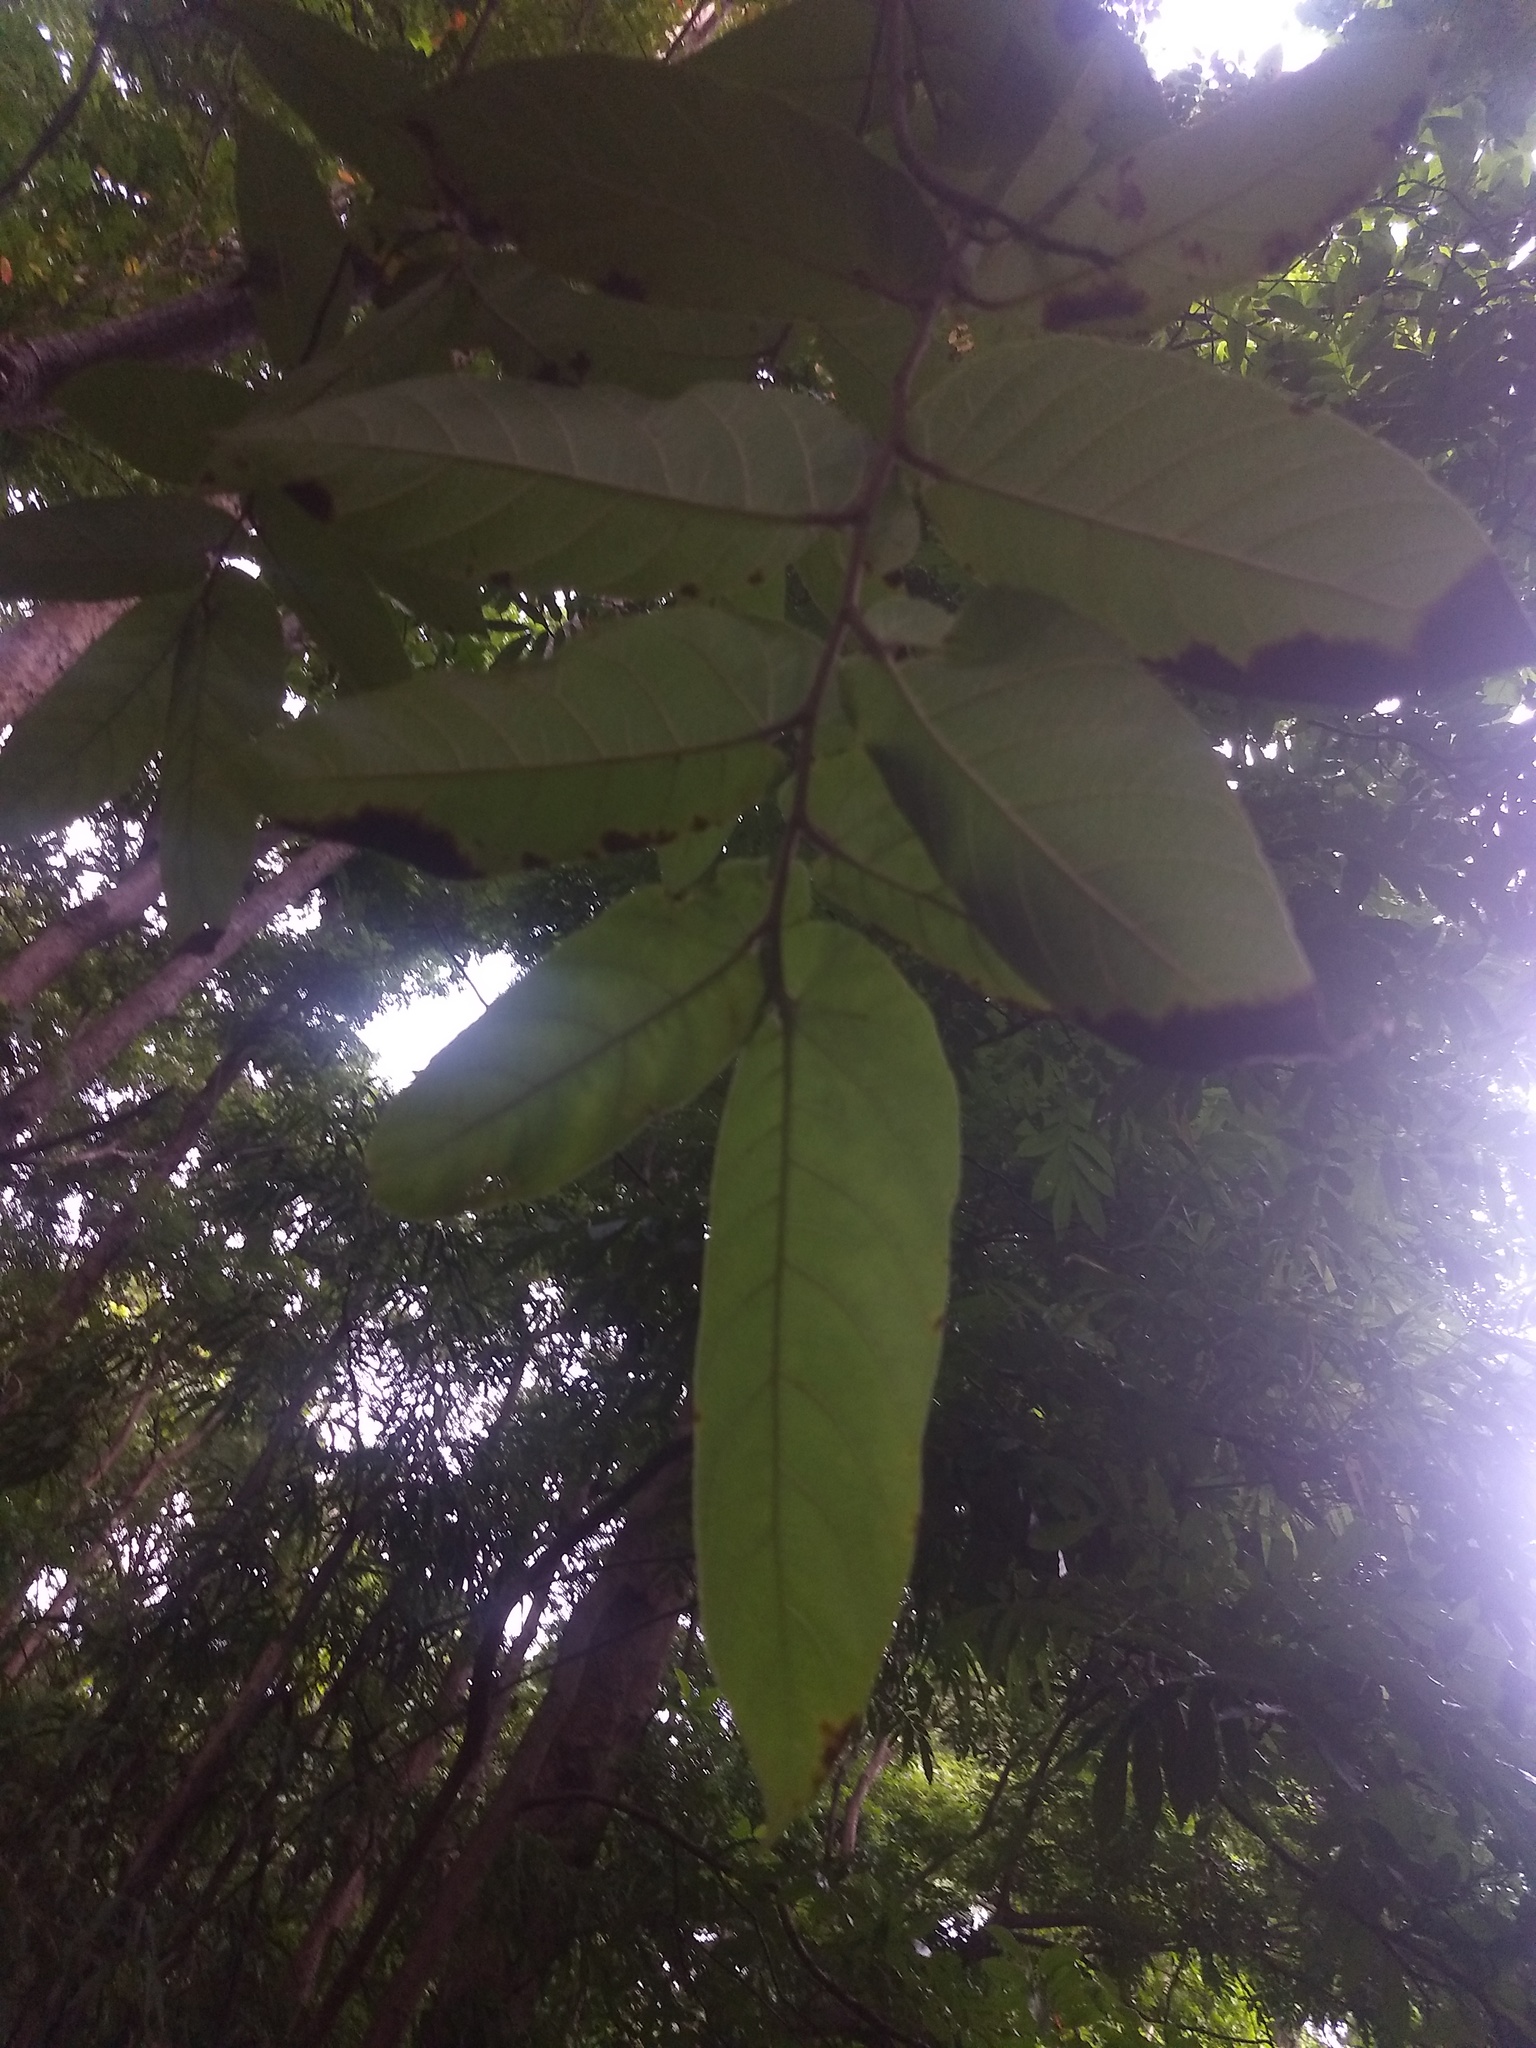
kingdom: Plantae
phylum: Tracheophyta
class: Magnoliopsida
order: Rosales
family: Moraceae
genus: Ficus
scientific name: Ficus semicordata
